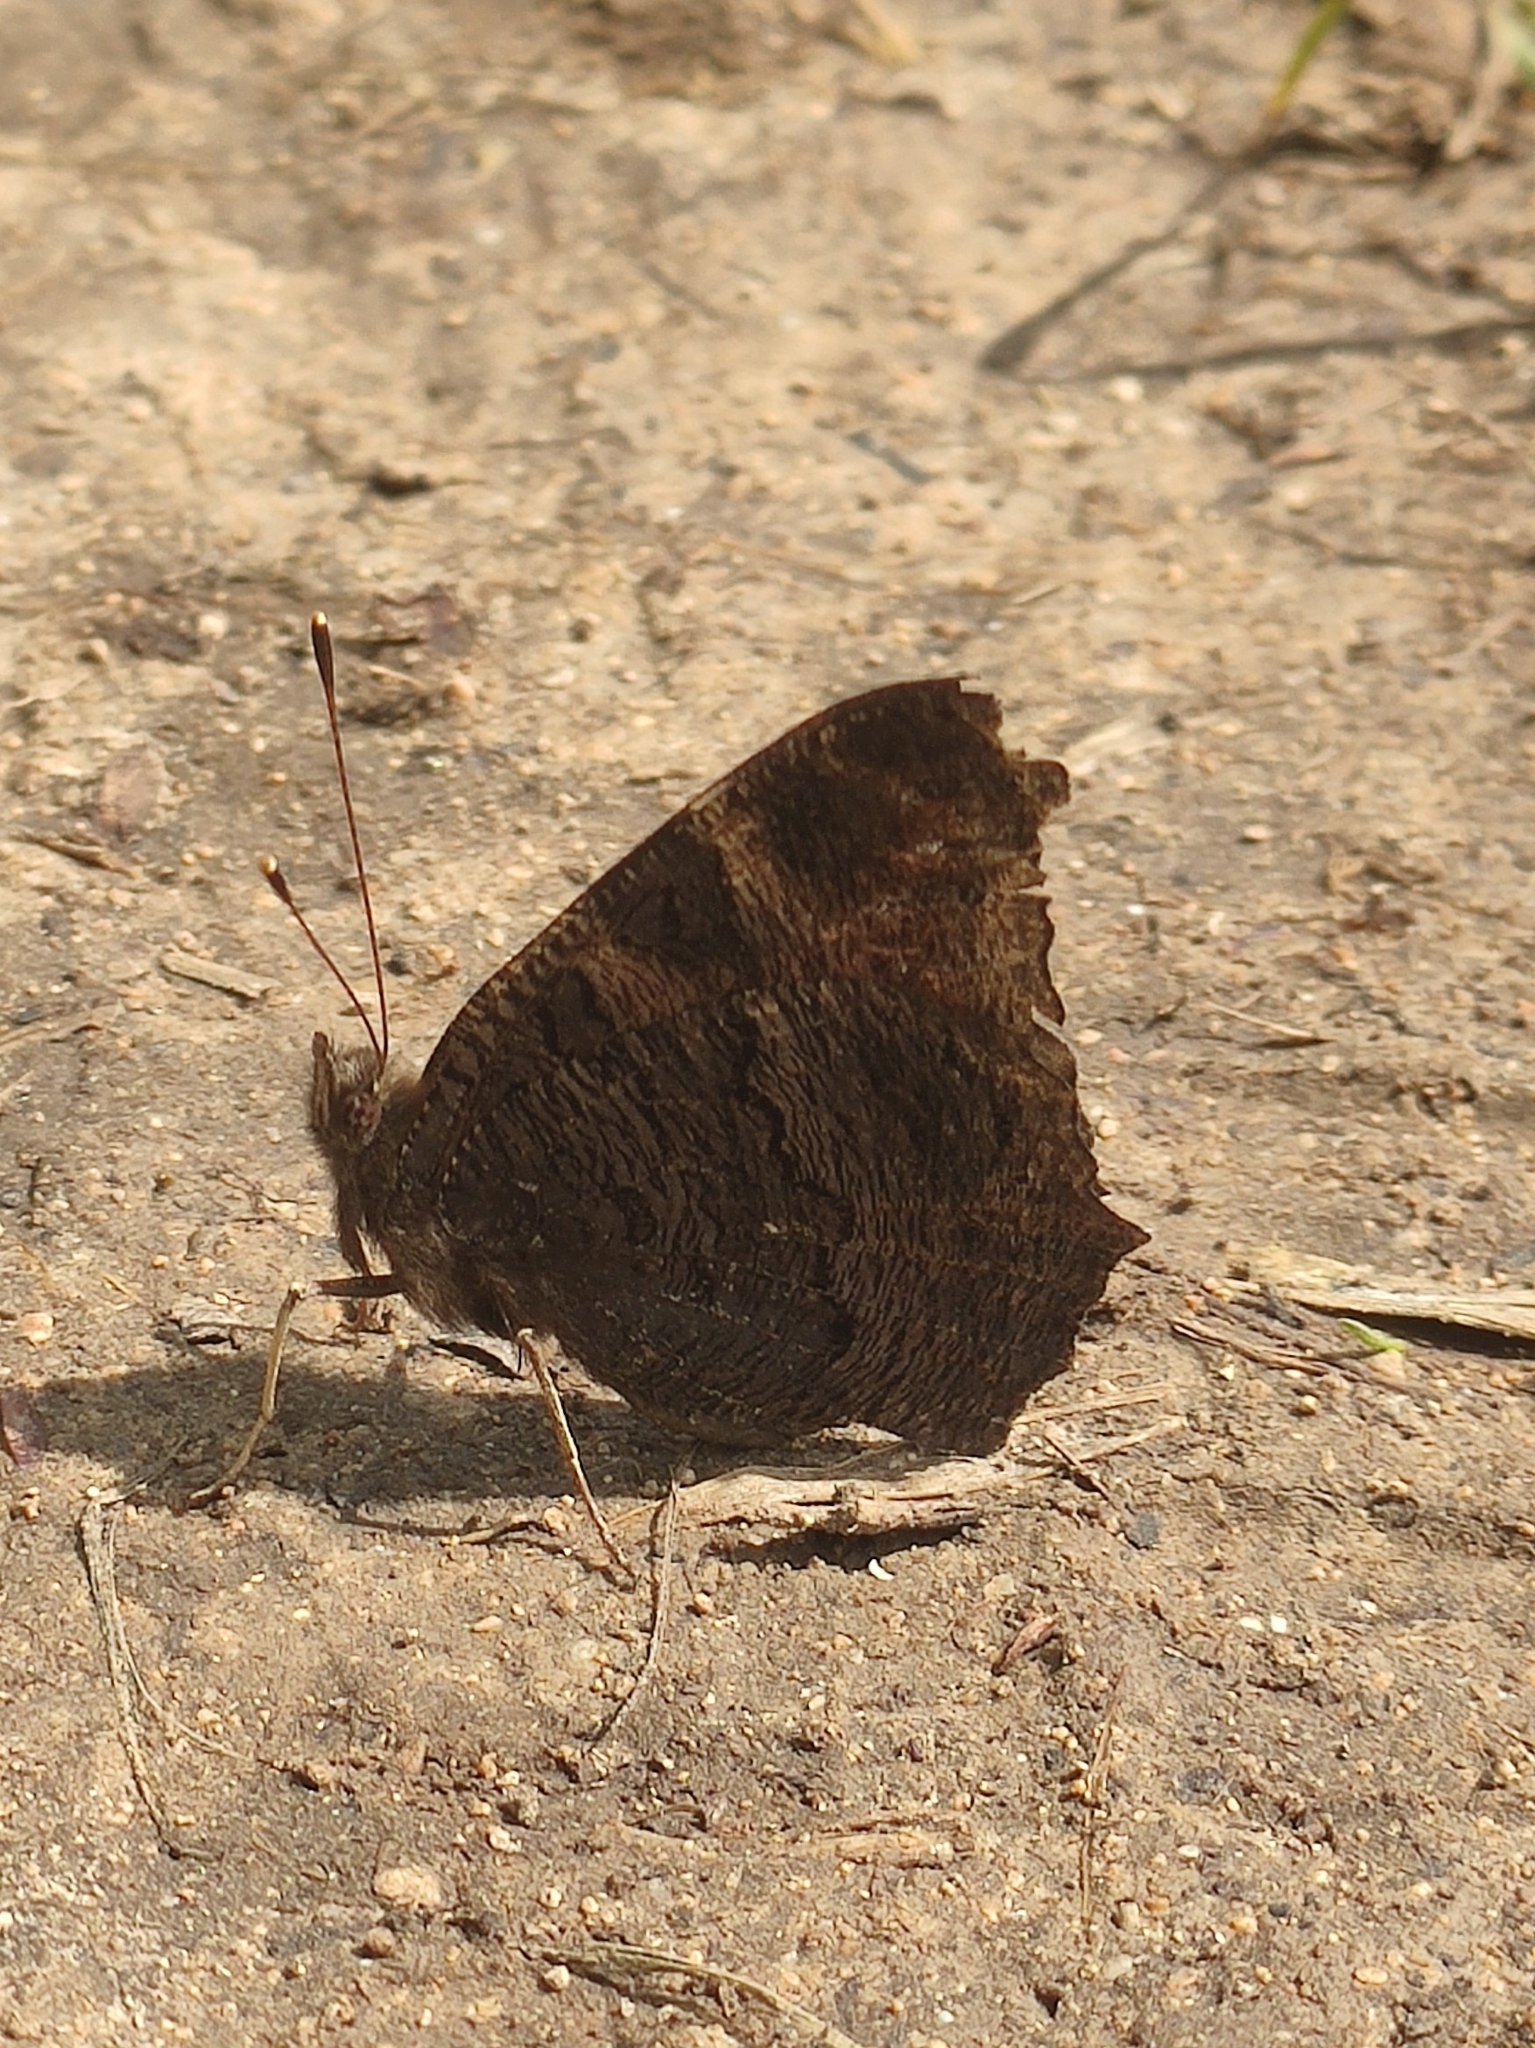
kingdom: Animalia
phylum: Arthropoda
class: Insecta
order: Lepidoptera
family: Nymphalidae
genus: Aglais
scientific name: Aglais io
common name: Peacock
